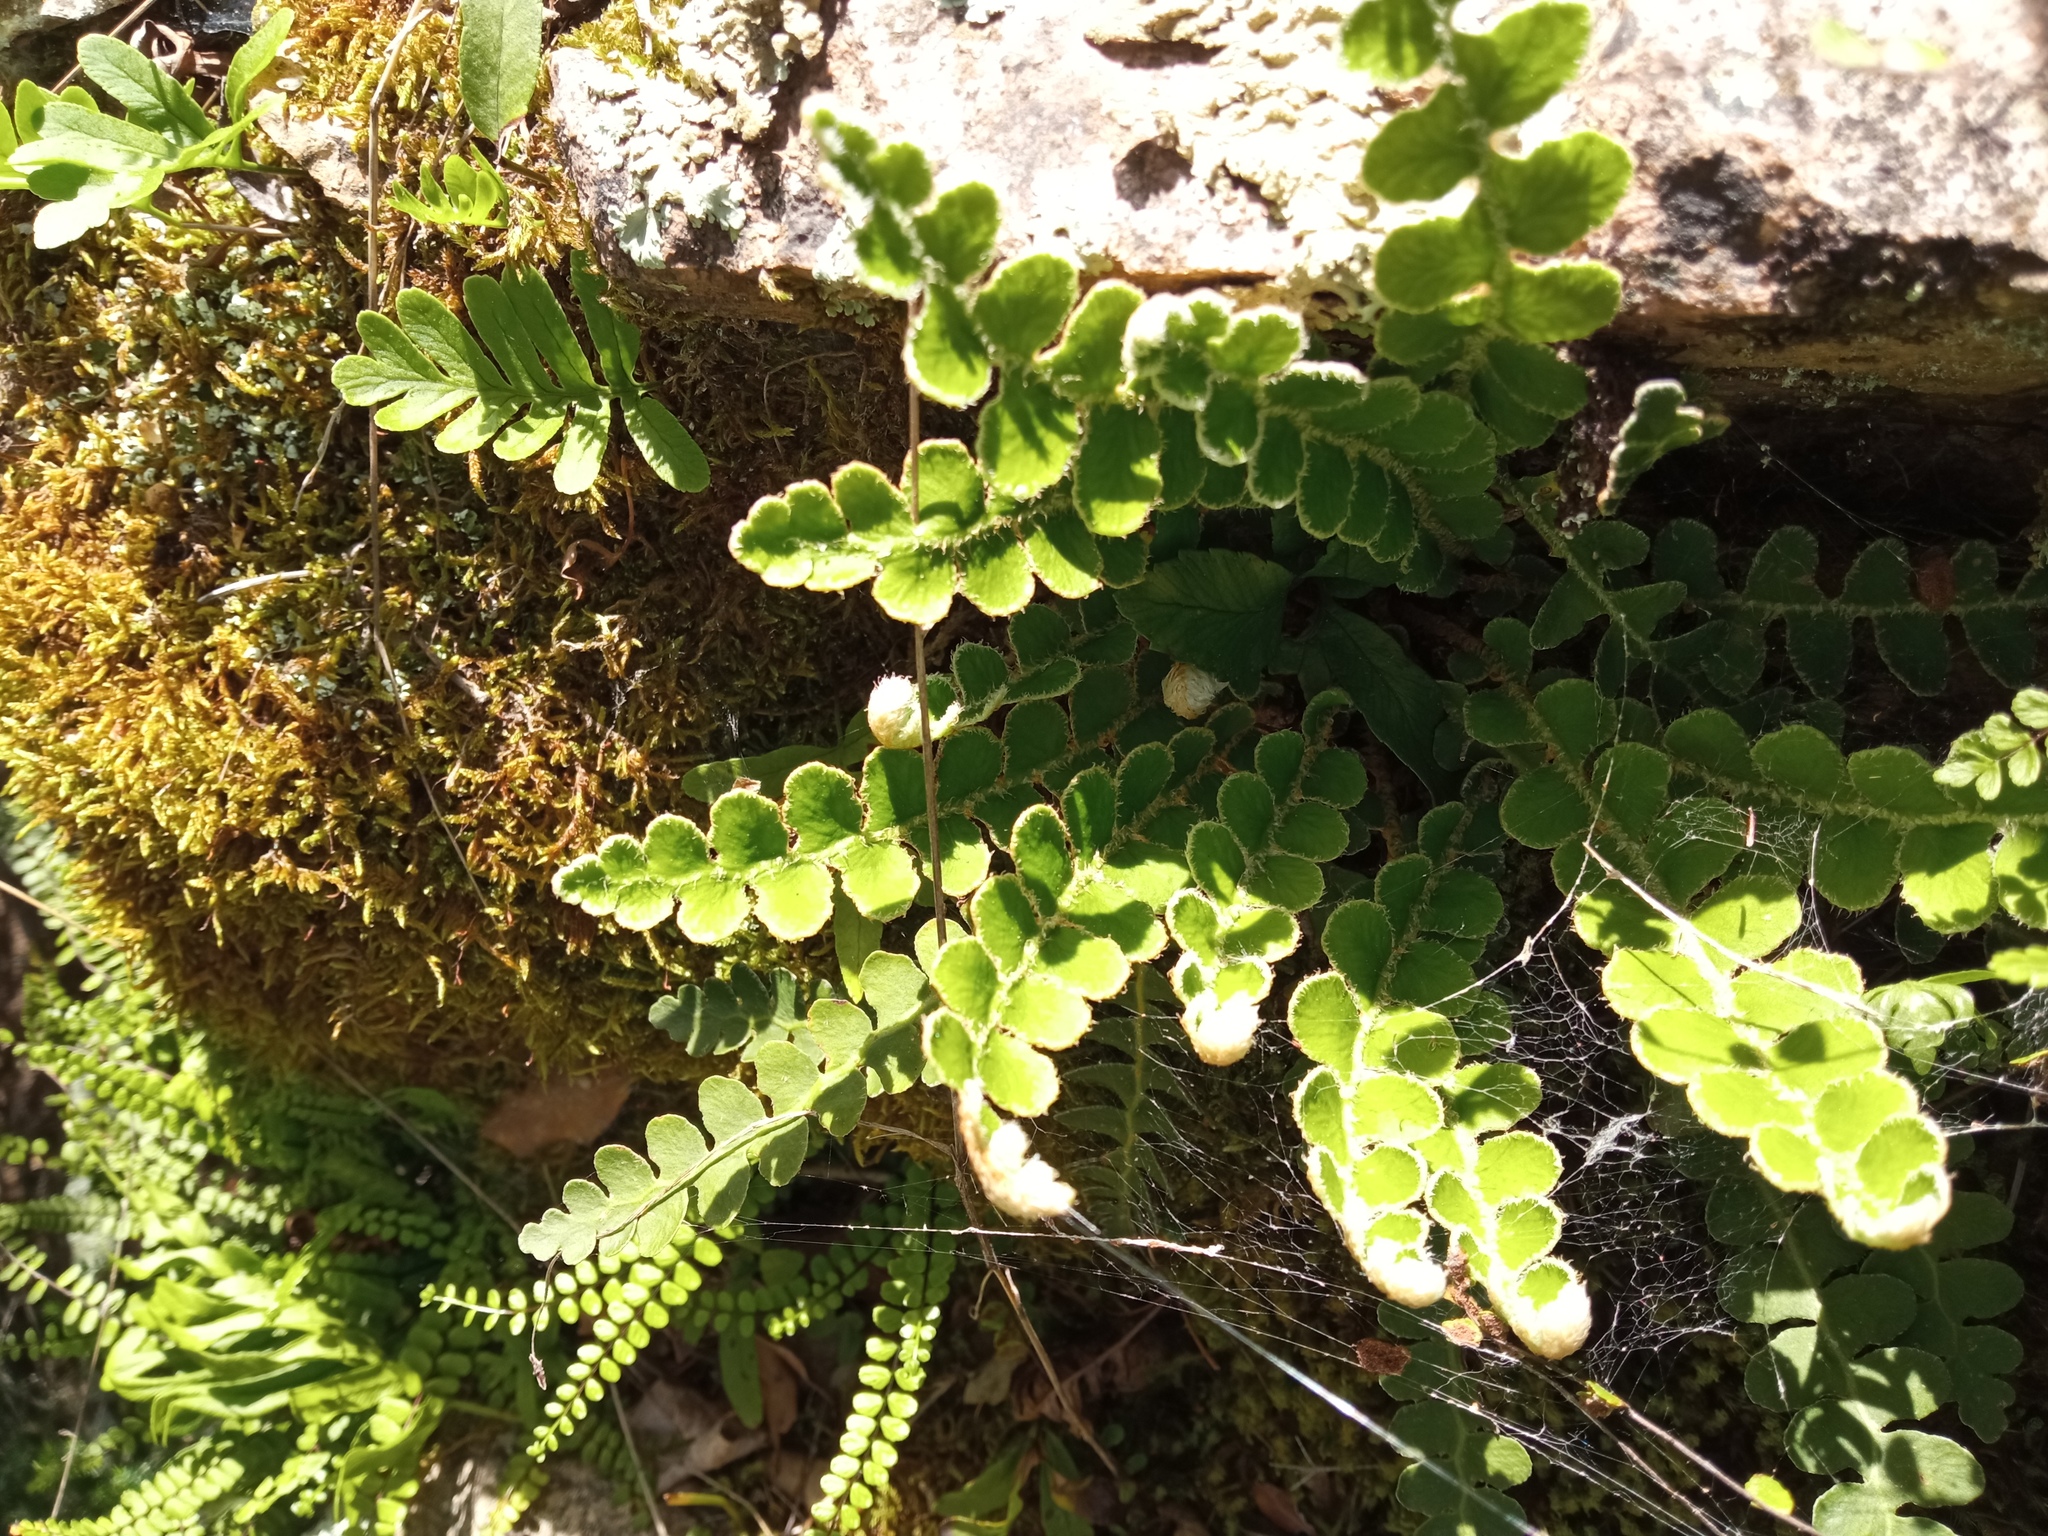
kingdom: Plantae
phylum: Tracheophyta
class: Polypodiopsida
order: Polypodiales
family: Aspleniaceae
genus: Asplenium
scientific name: Asplenium ceterach
